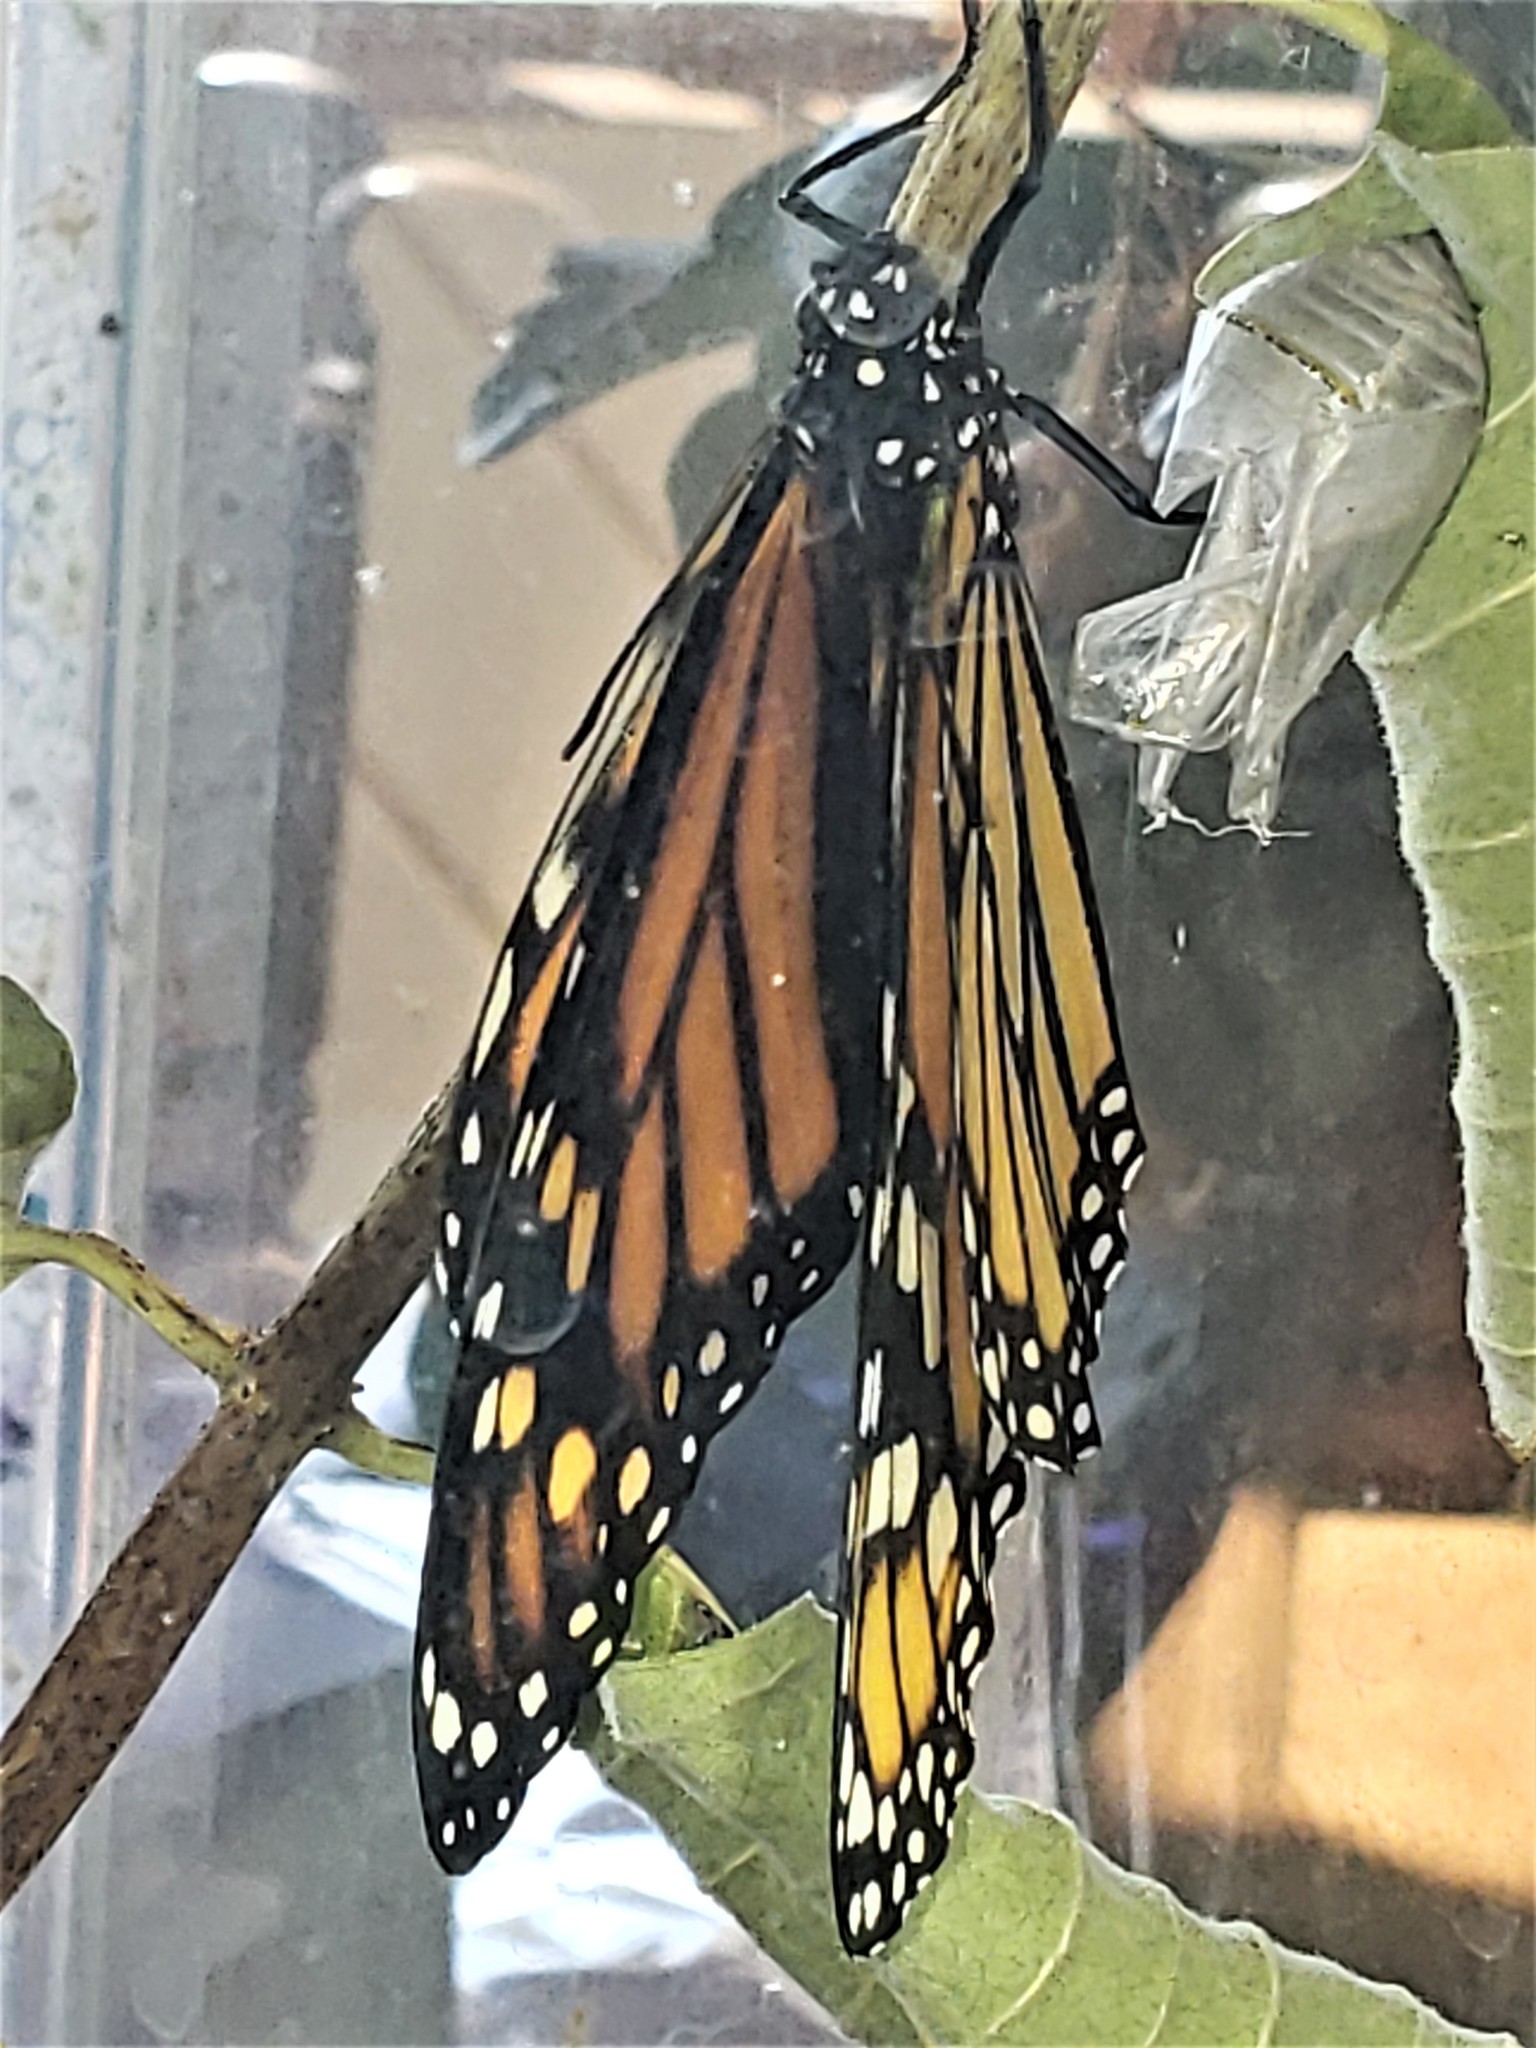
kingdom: Animalia
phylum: Arthropoda
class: Insecta
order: Lepidoptera
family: Nymphalidae
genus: Danaus
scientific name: Danaus plexippus
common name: Monarch
